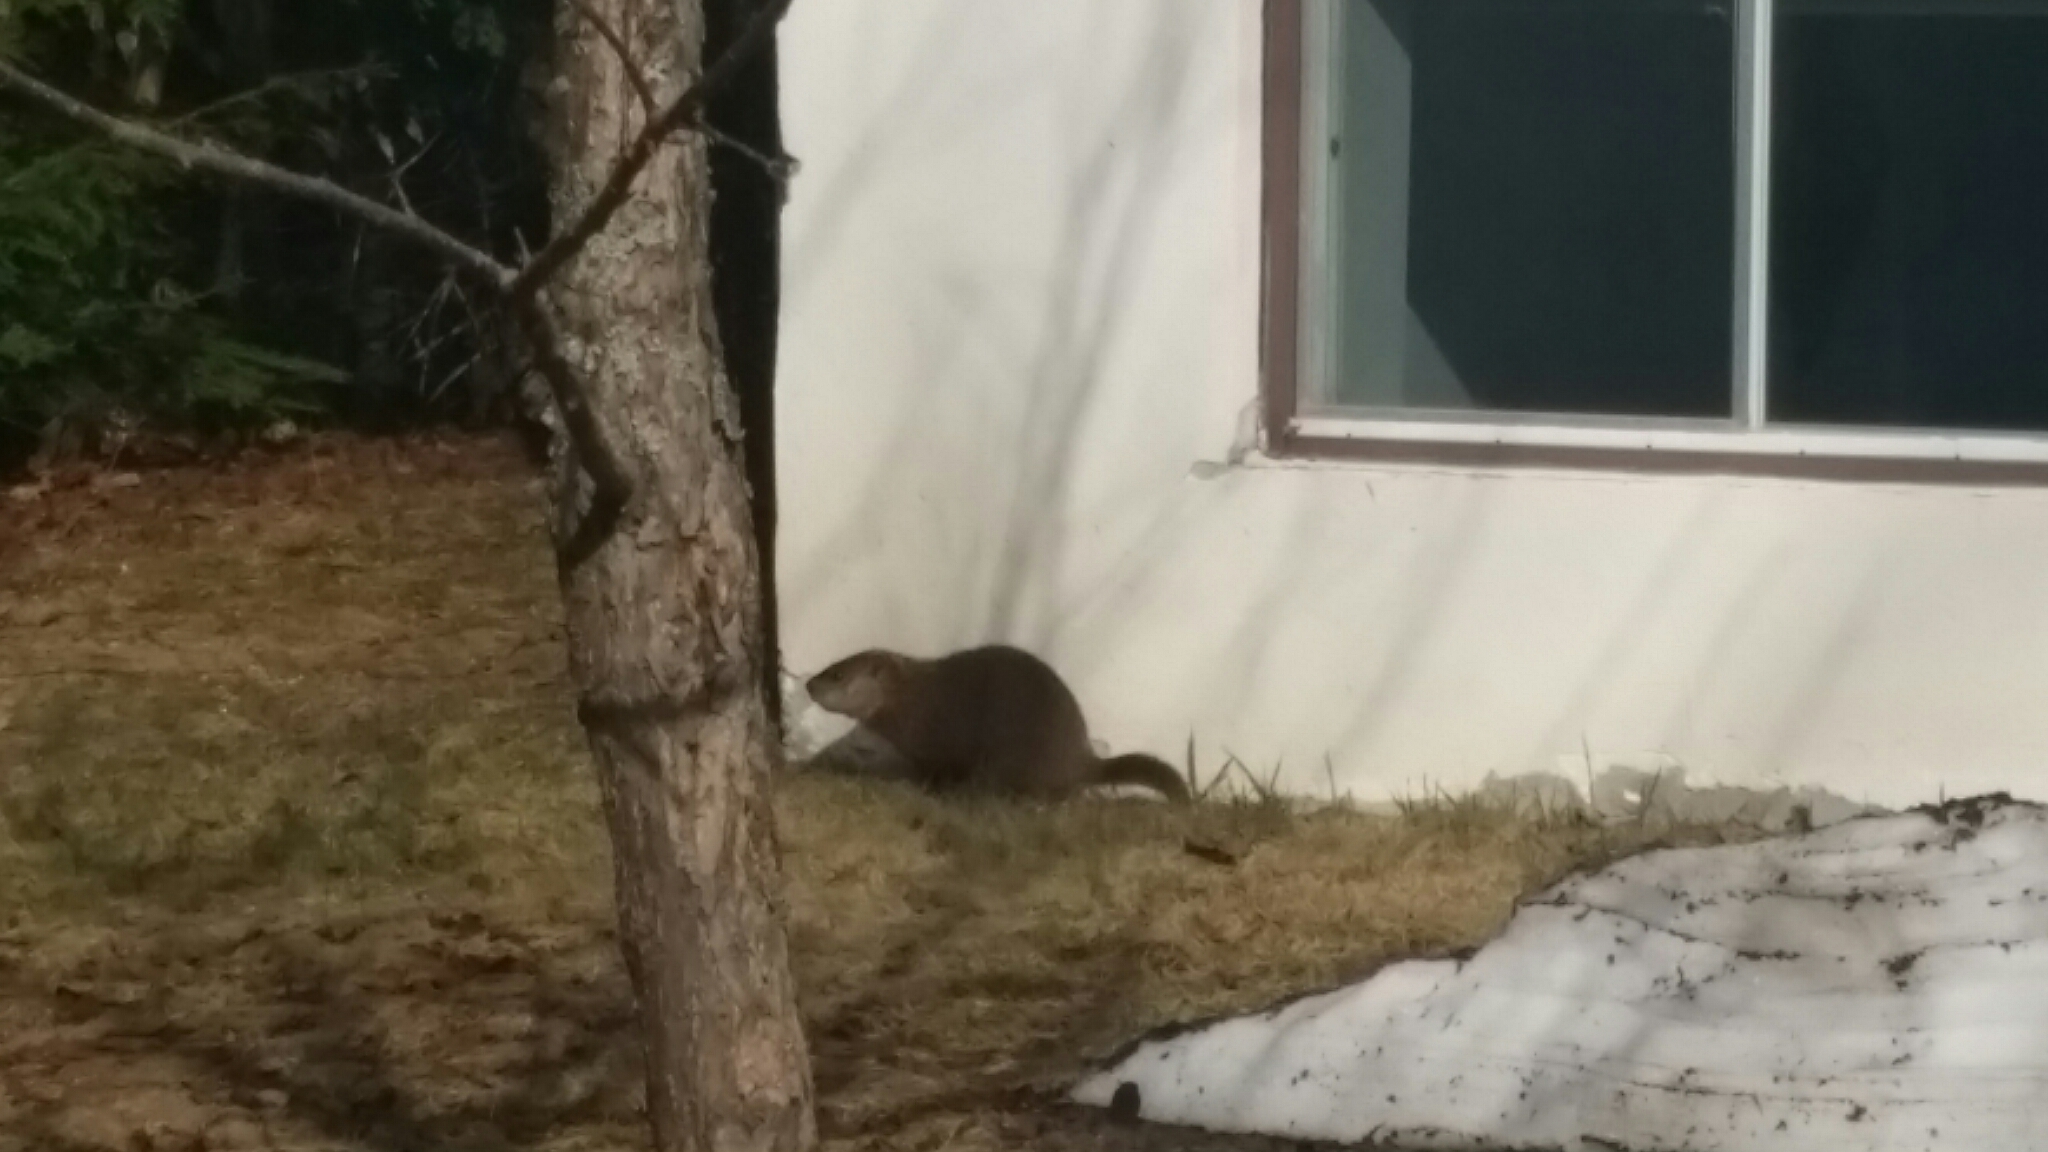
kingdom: Animalia
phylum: Chordata
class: Mammalia
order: Rodentia
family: Sciuridae
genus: Marmota
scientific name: Marmota monax
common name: Groundhog
